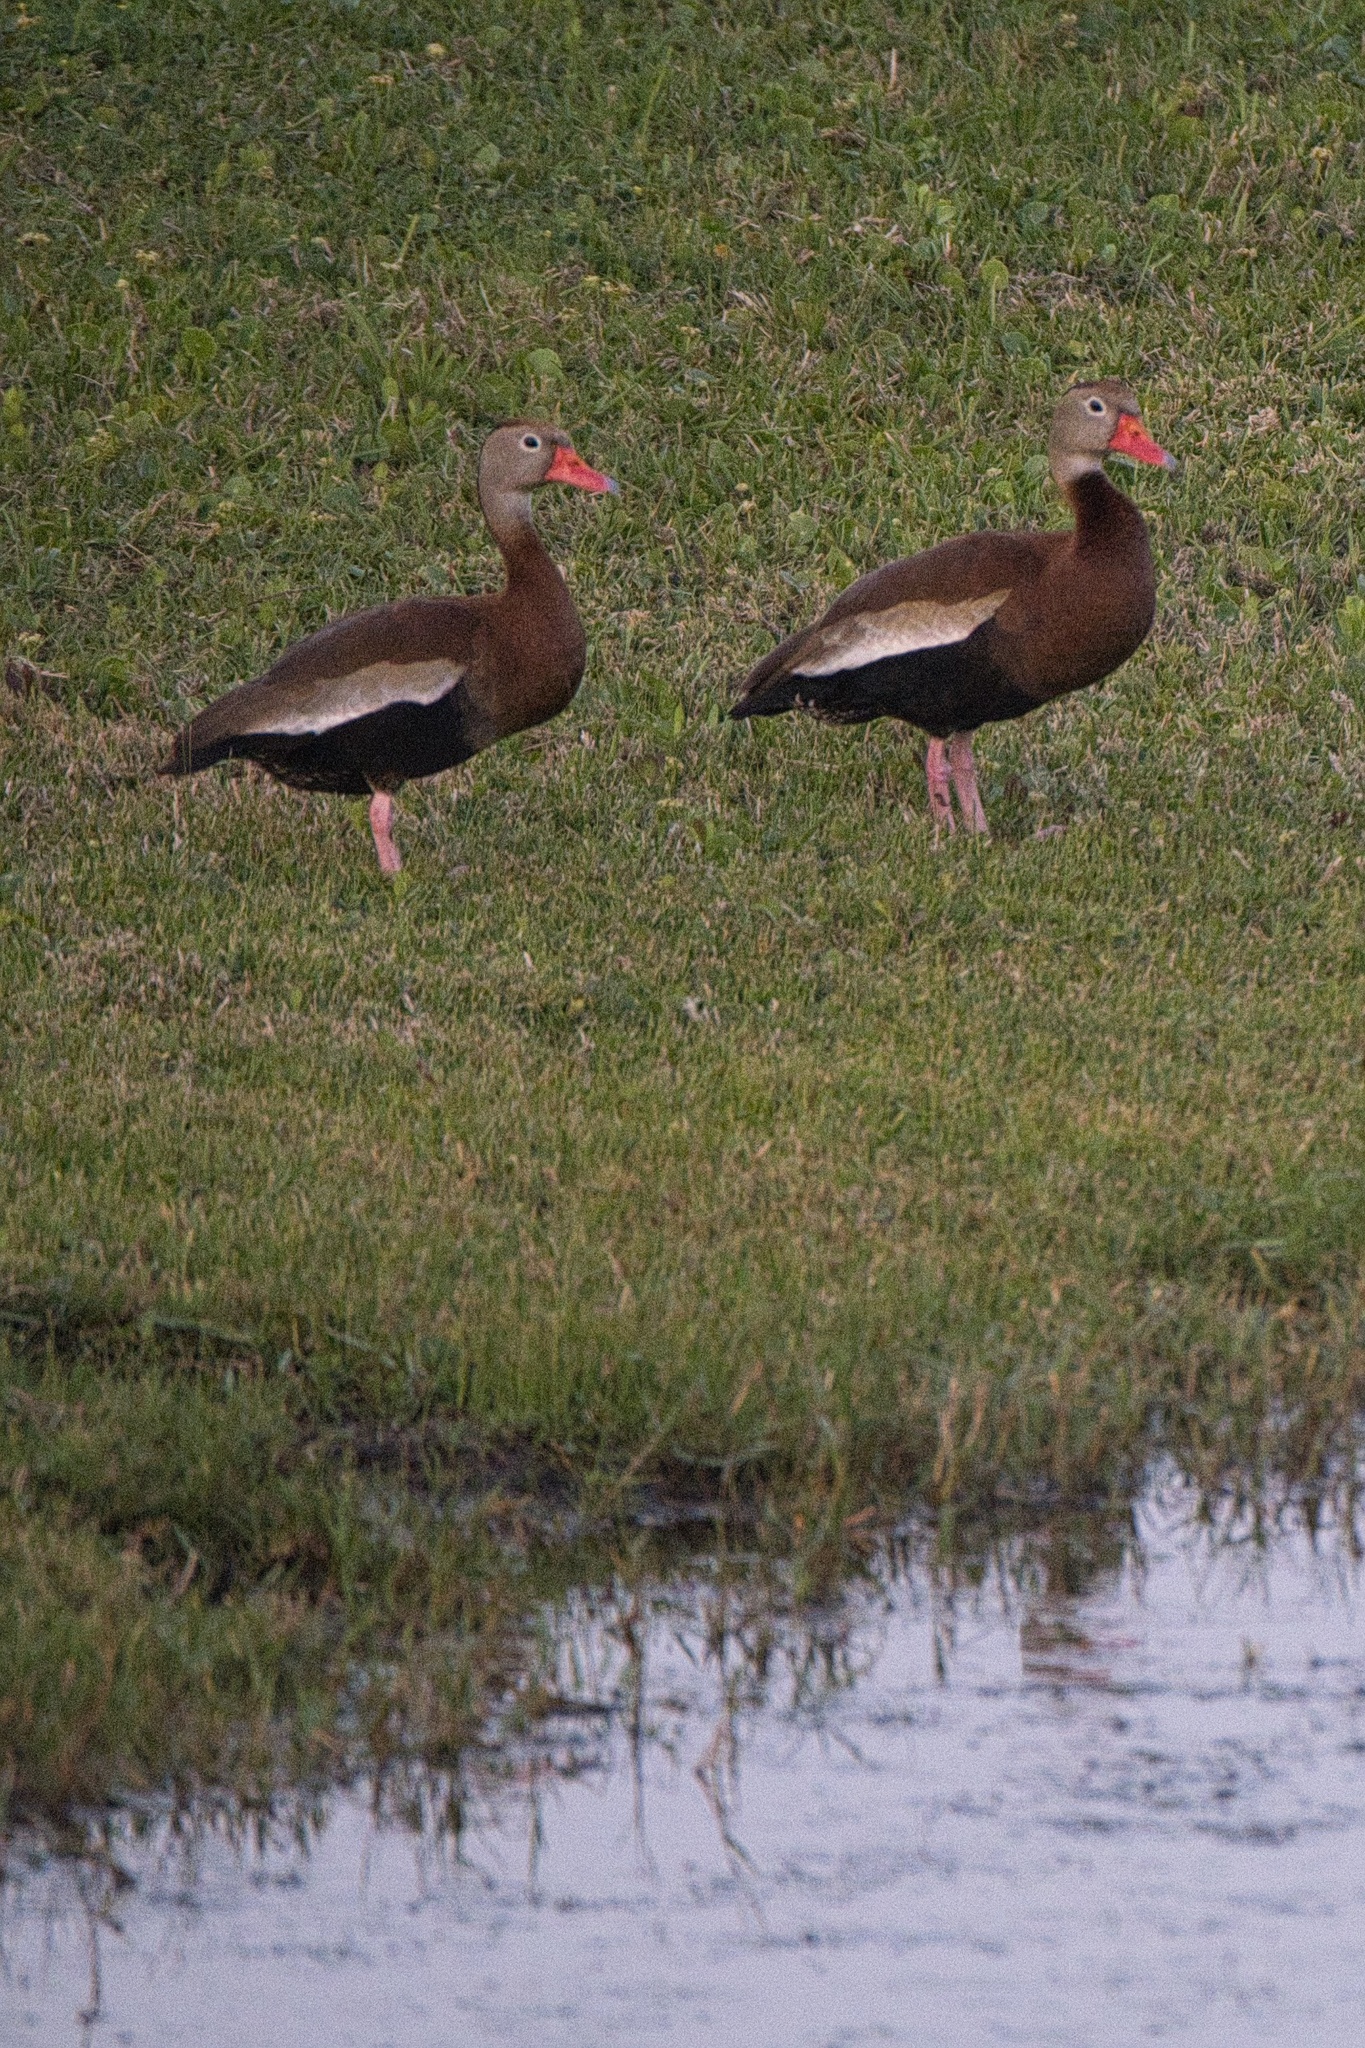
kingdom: Animalia
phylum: Chordata
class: Aves
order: Anseriformes
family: Anatidae
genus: Dendrocygna
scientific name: Dendrocygna autumnalis
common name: Black-bellied whistling duck
